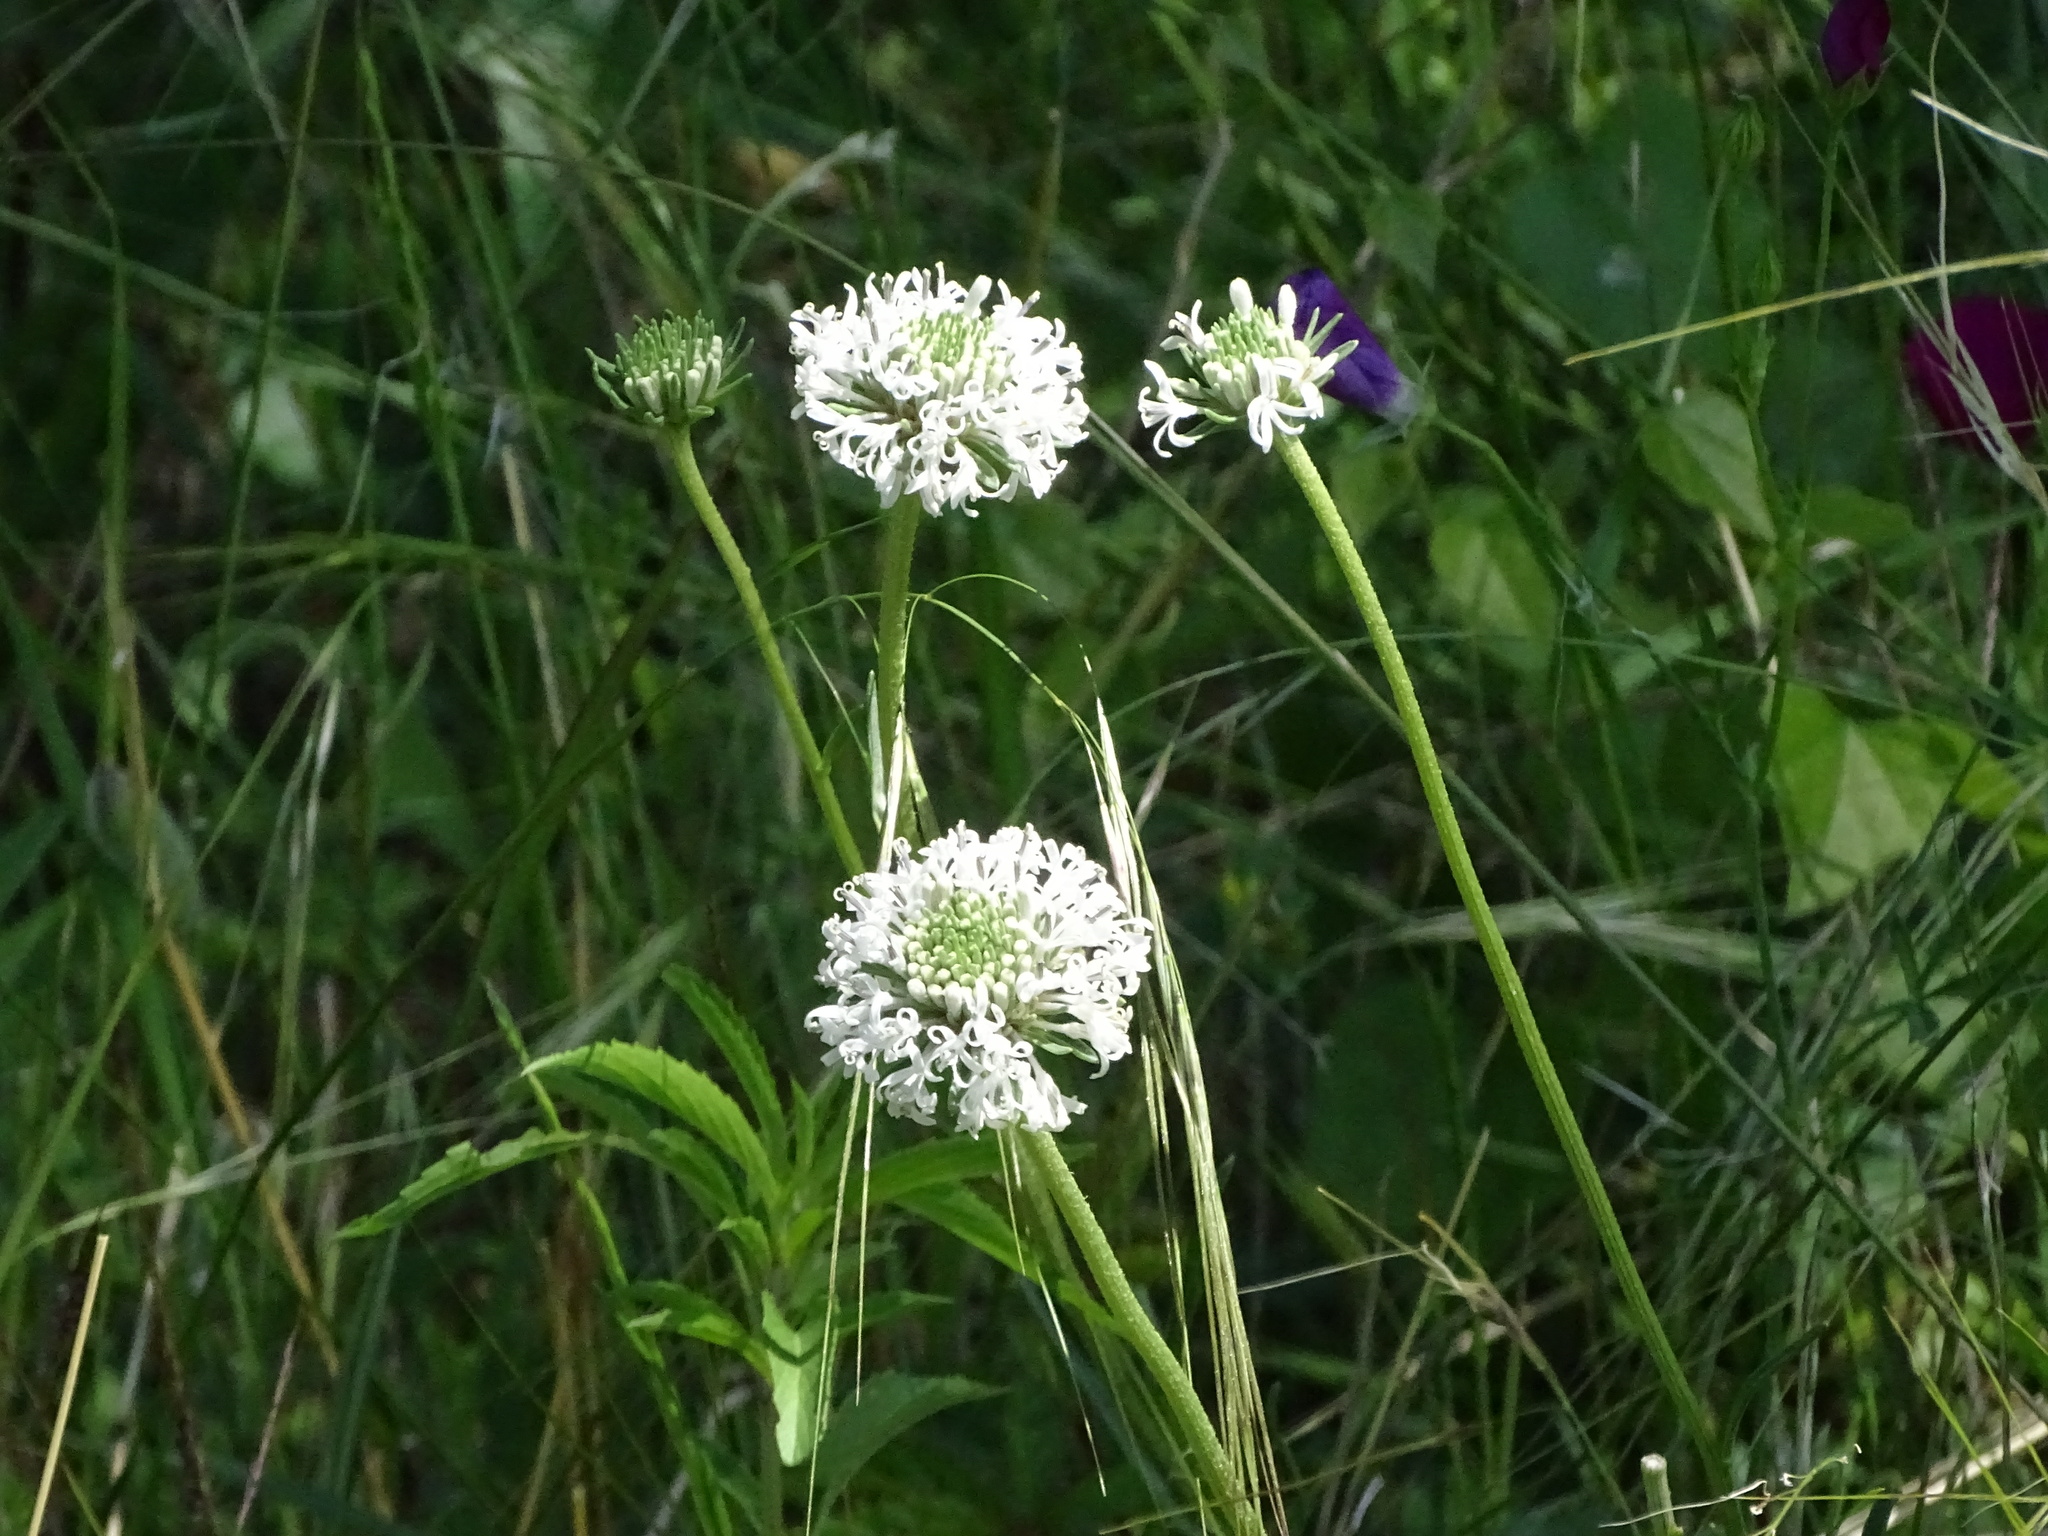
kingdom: Plantae
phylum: Tracheophyta
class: Magnoliopsida
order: Asterales
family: Asteraceae
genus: Marshallia
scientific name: Marshallia caespitosa
